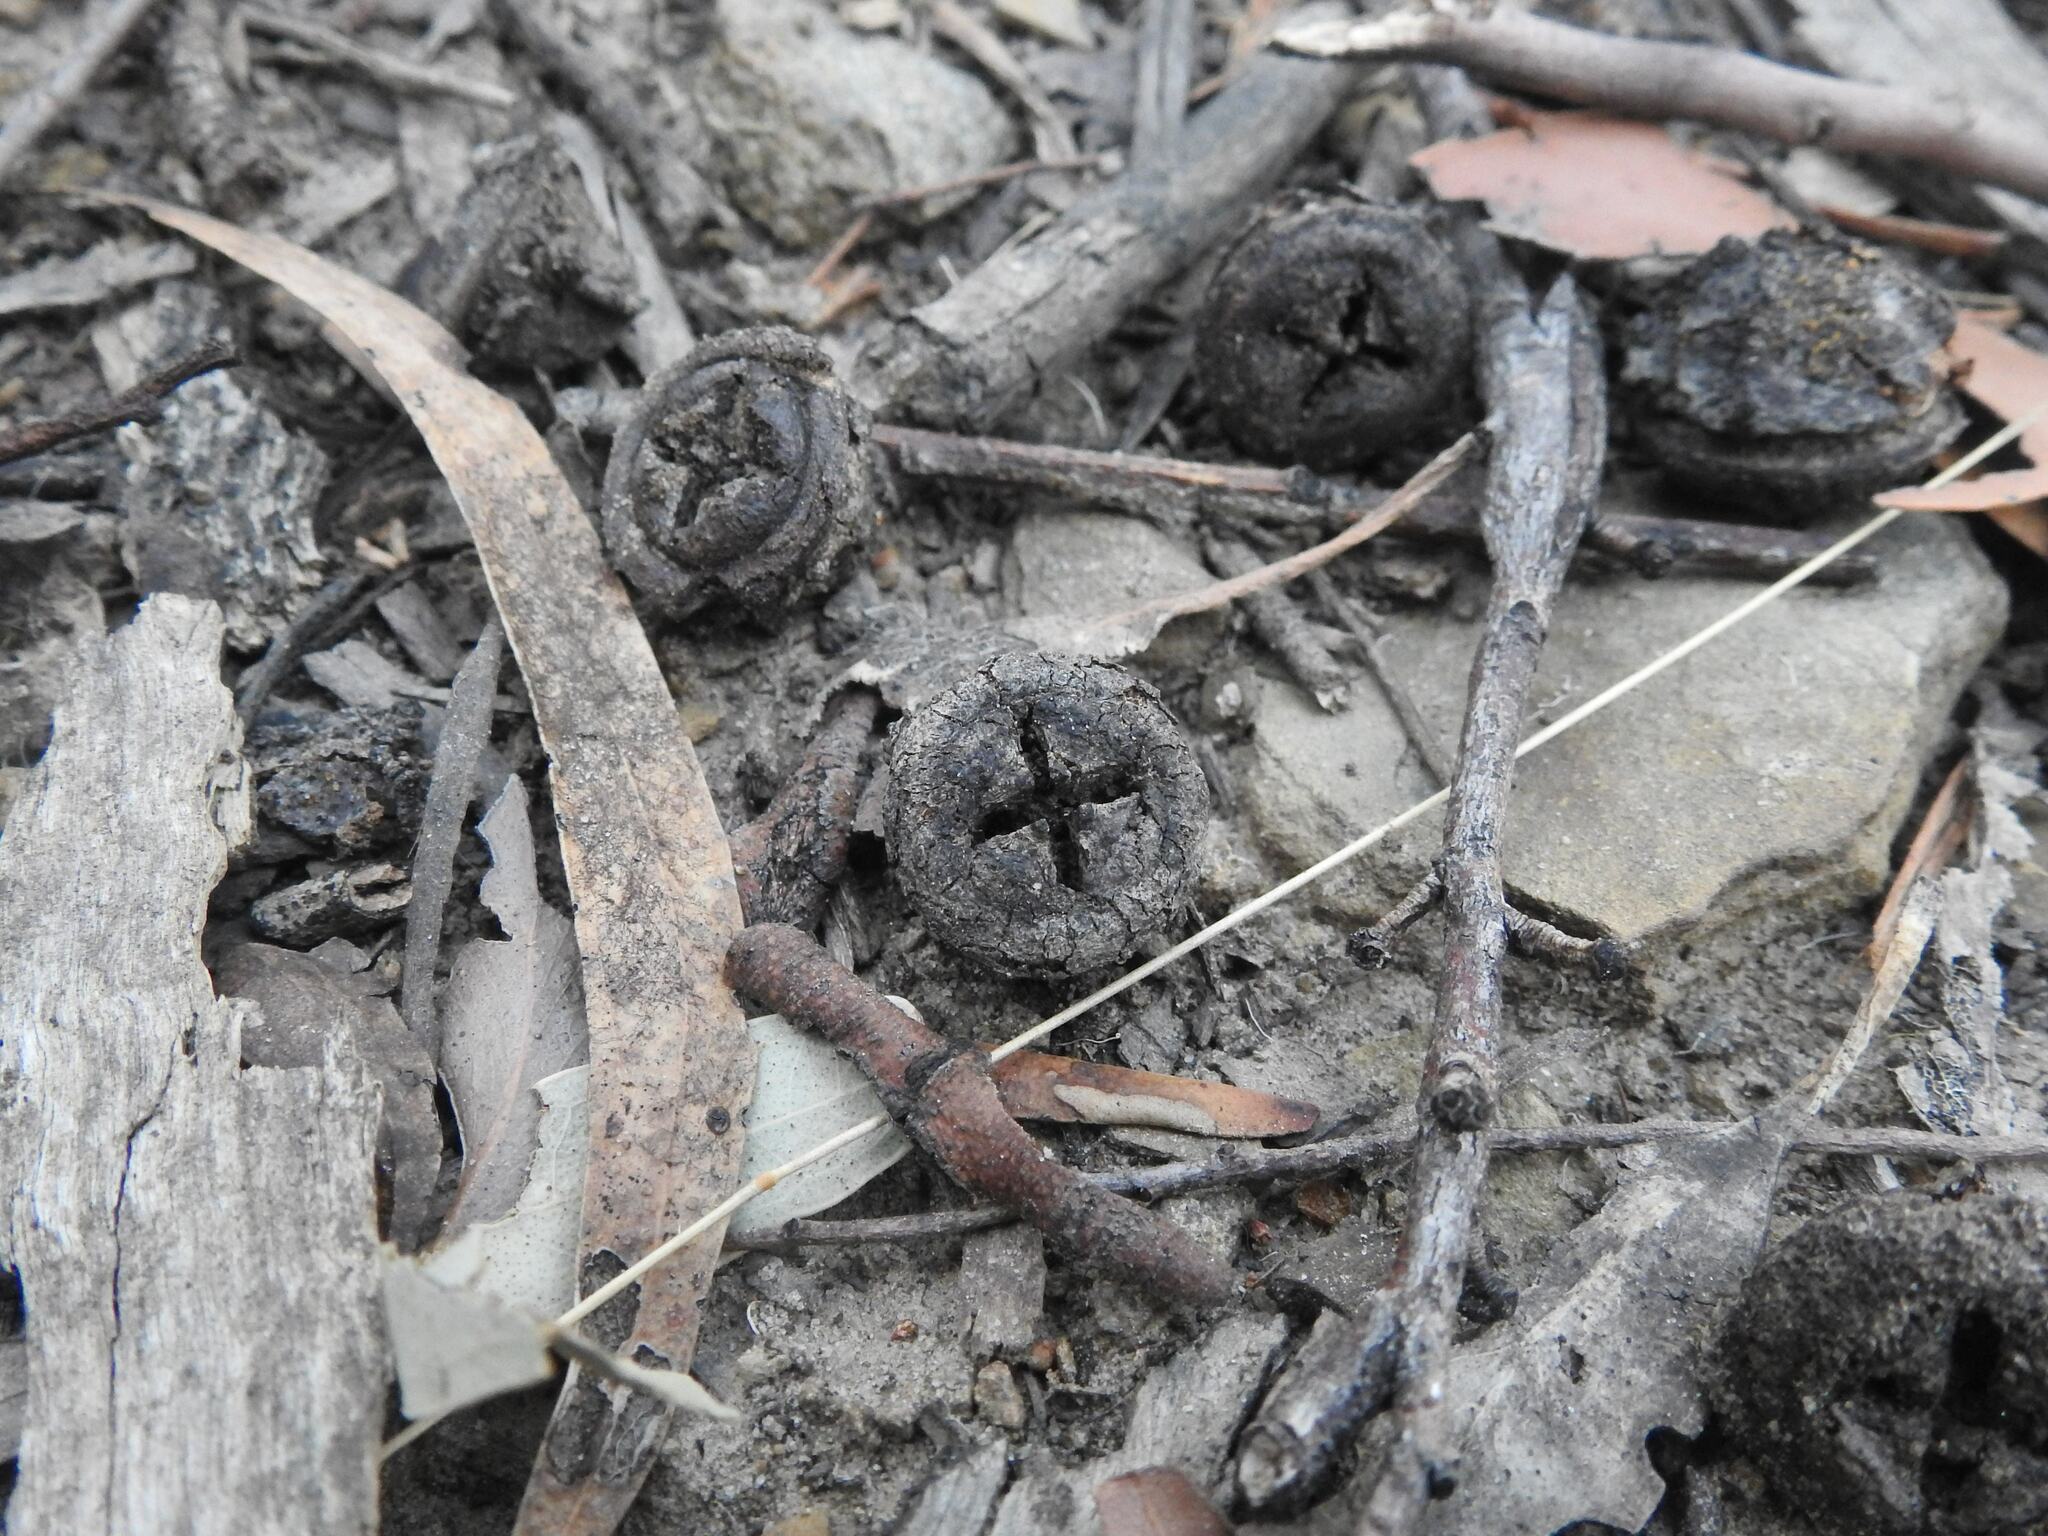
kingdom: Plantae
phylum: Tracheophyta
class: Magnoliopsida
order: Myrtales
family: Myrtaceae
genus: Eucalyptus
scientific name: Eucalyptus globulus
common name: Southern blue-gum
